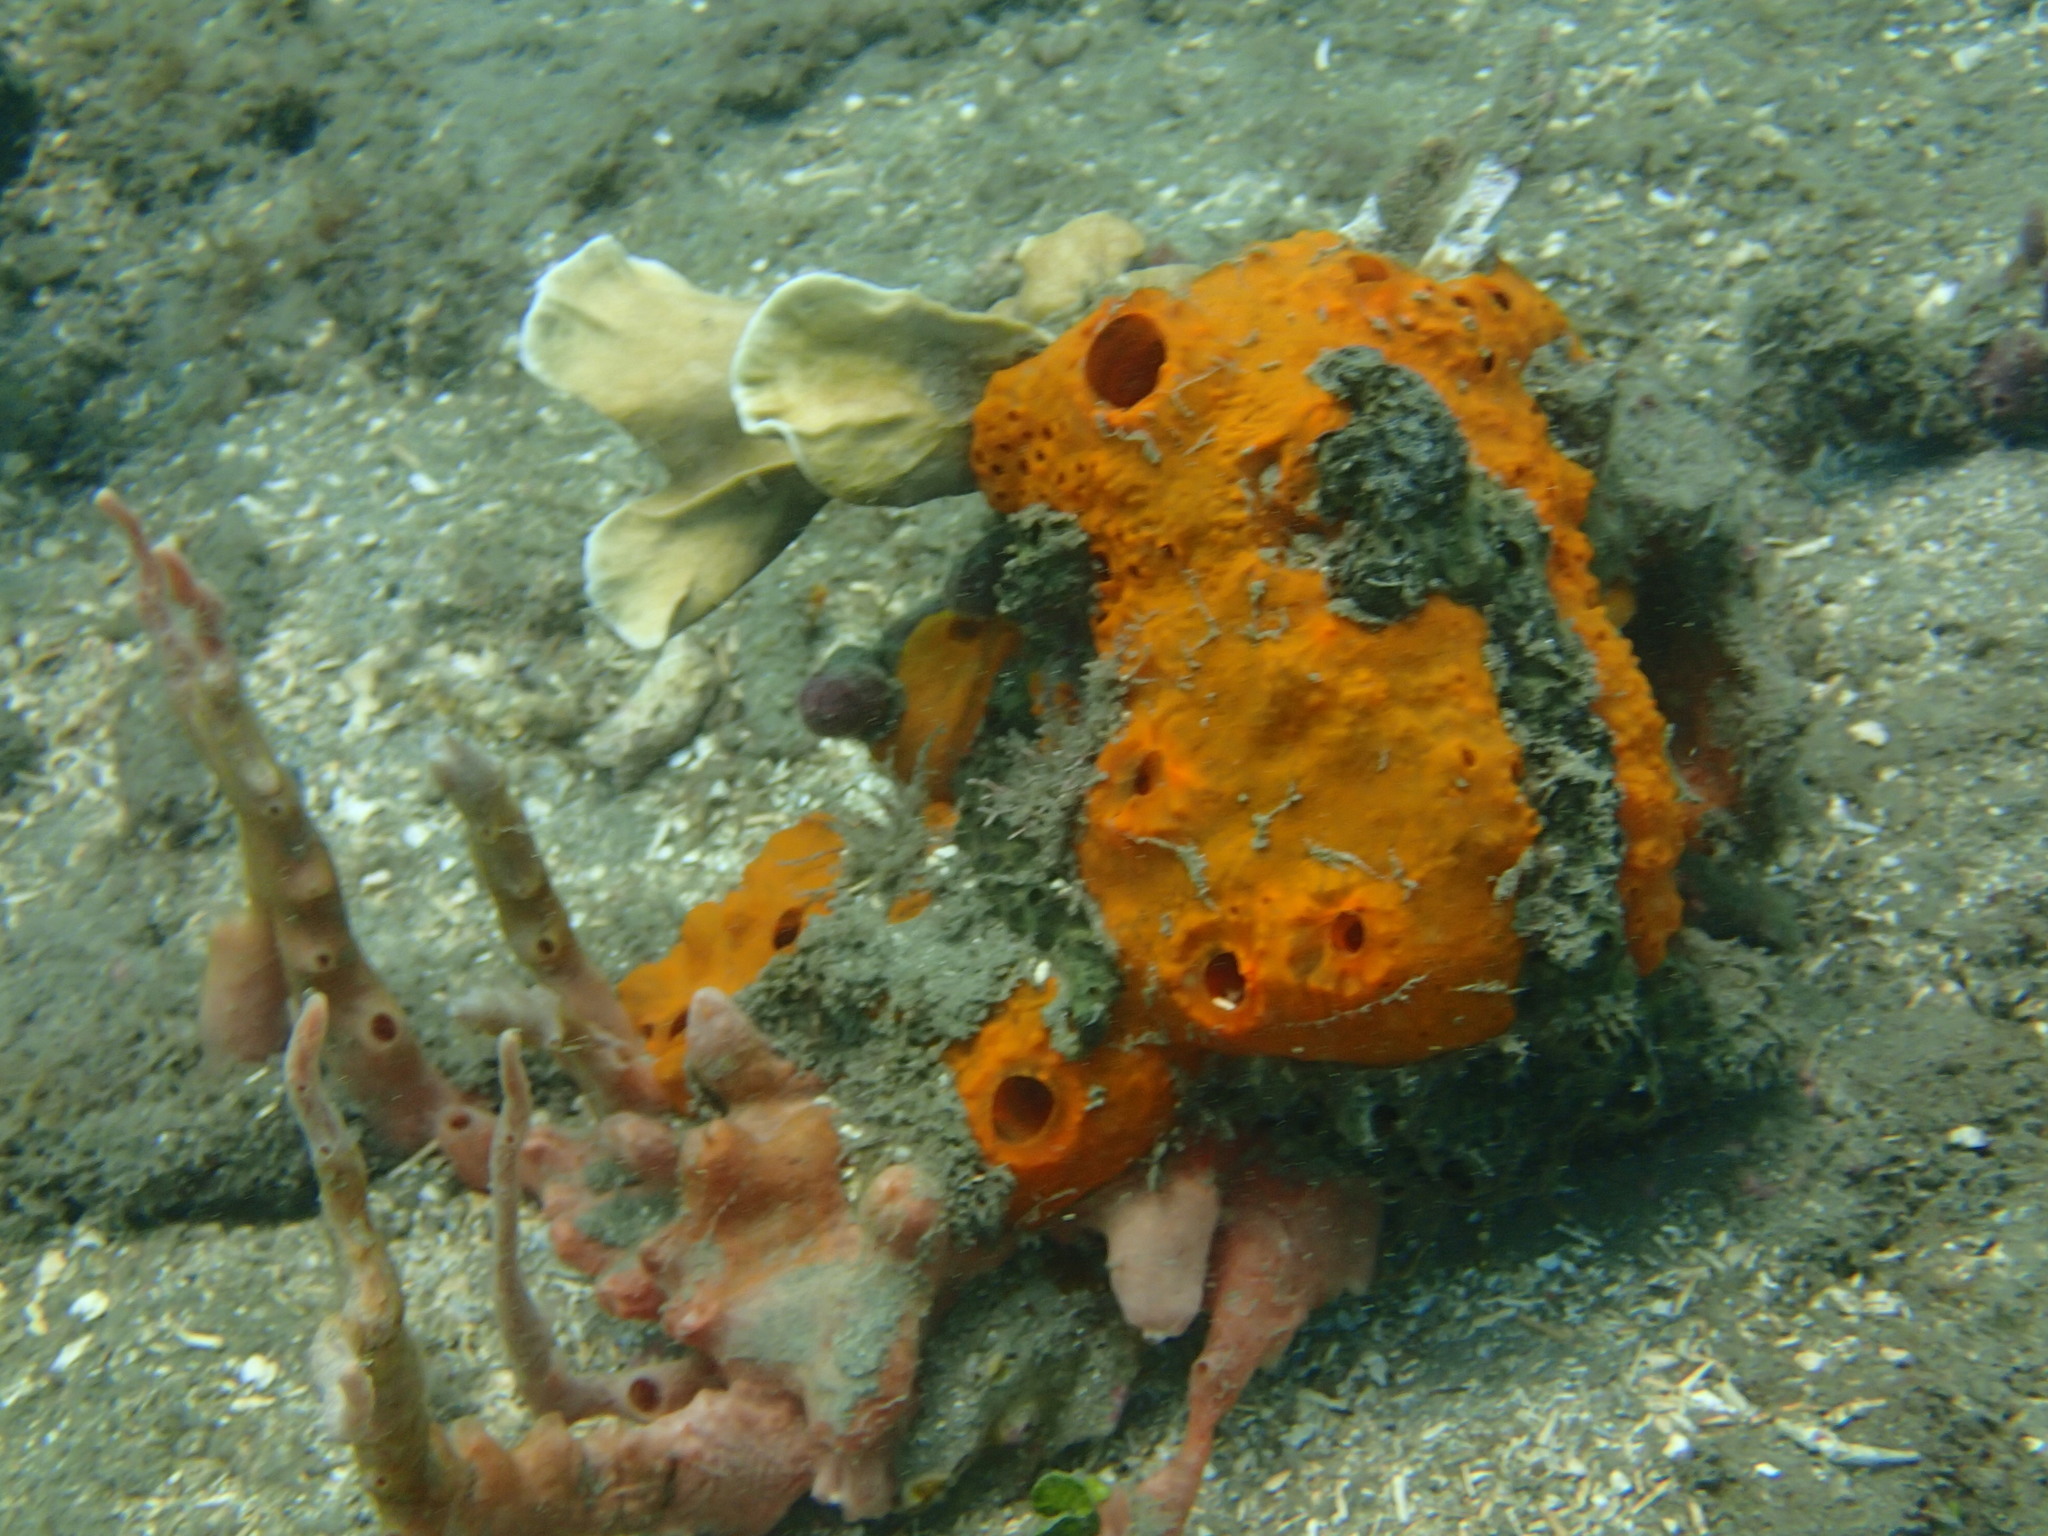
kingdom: Animalia
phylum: Porifera
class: Demospongiae
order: Poecilosclerida
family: Coelosphaeridae
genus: Lissodendoryx
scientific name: Lissodendoryx colombiensis
